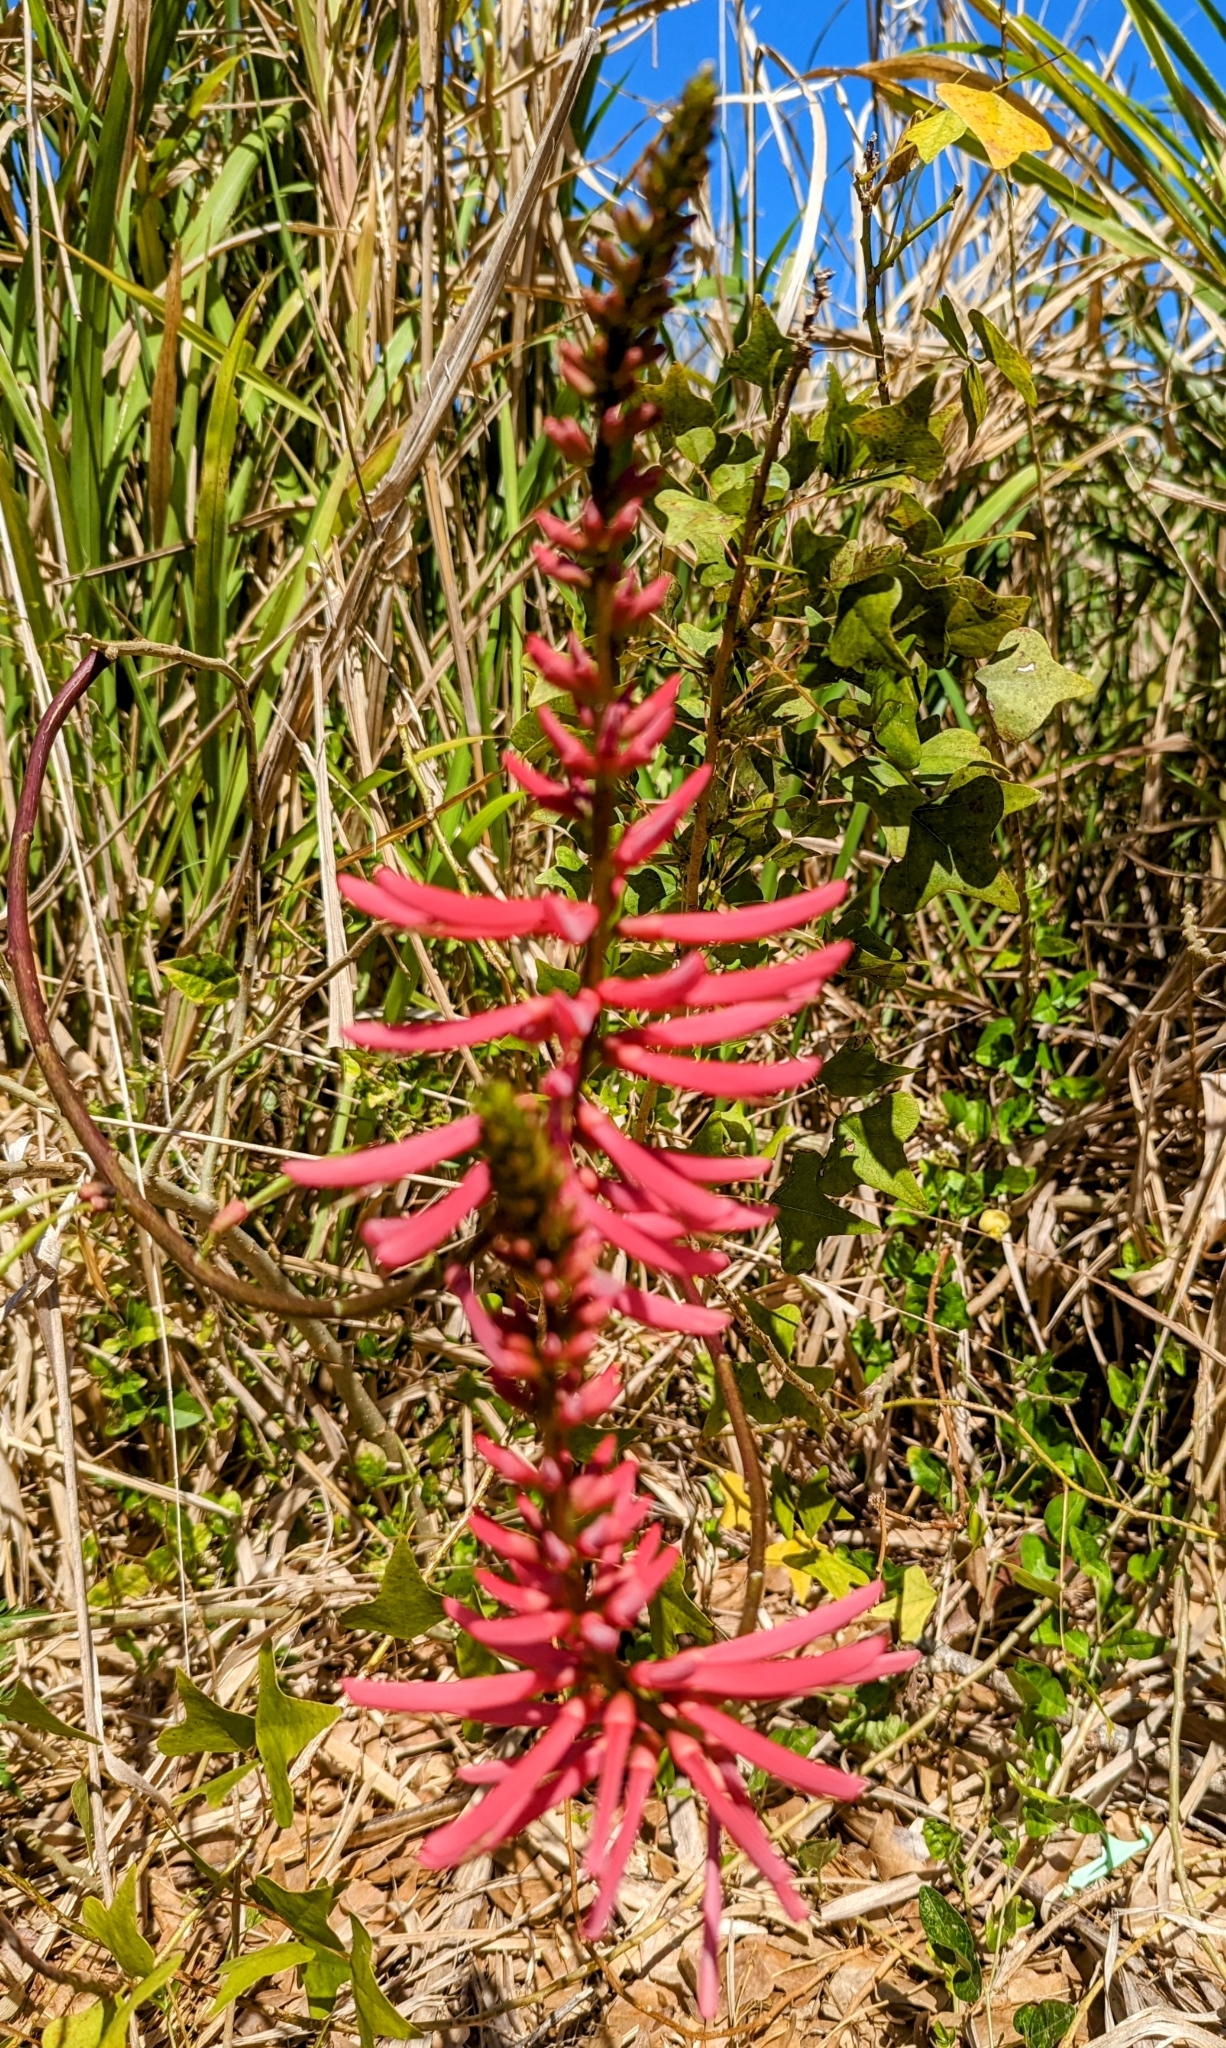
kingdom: Plantae
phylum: Tracheophyta
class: Magnoliopsida
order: Fabales
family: Fabaceae
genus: Erythrina
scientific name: Erythrina herbacea
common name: Coral-bean
